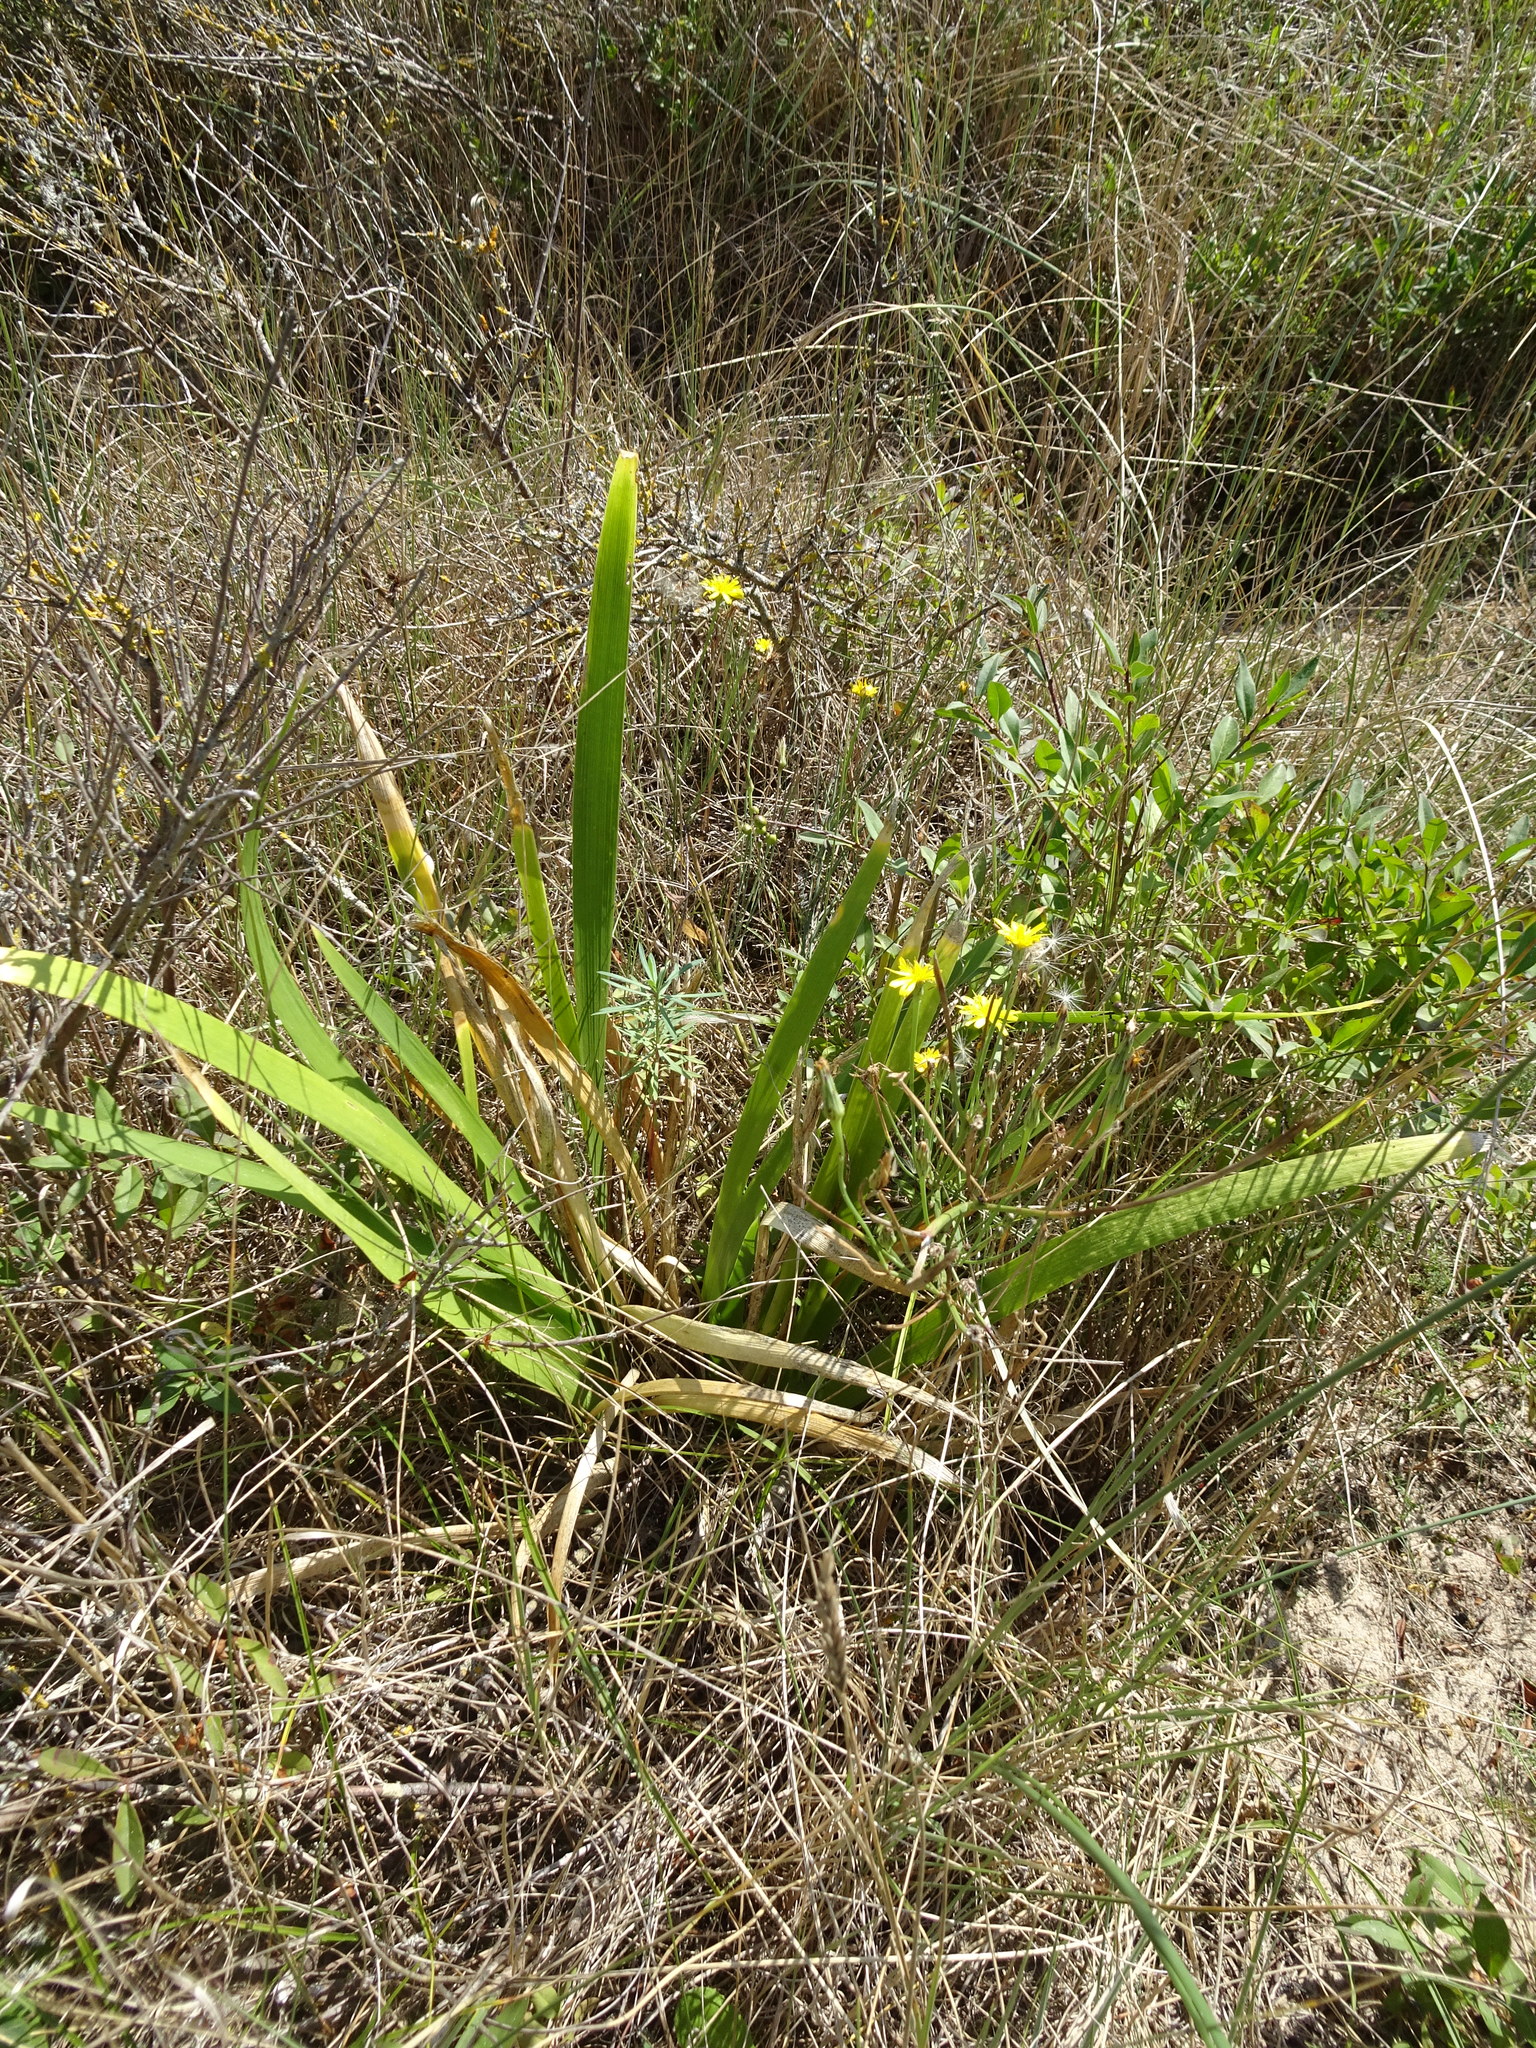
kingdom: Plantae
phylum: Tracheophyta
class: Liliopsida
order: Asparagales
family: Iridaceae
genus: Iris
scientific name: Iris foetidissima
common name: Stinking iris
